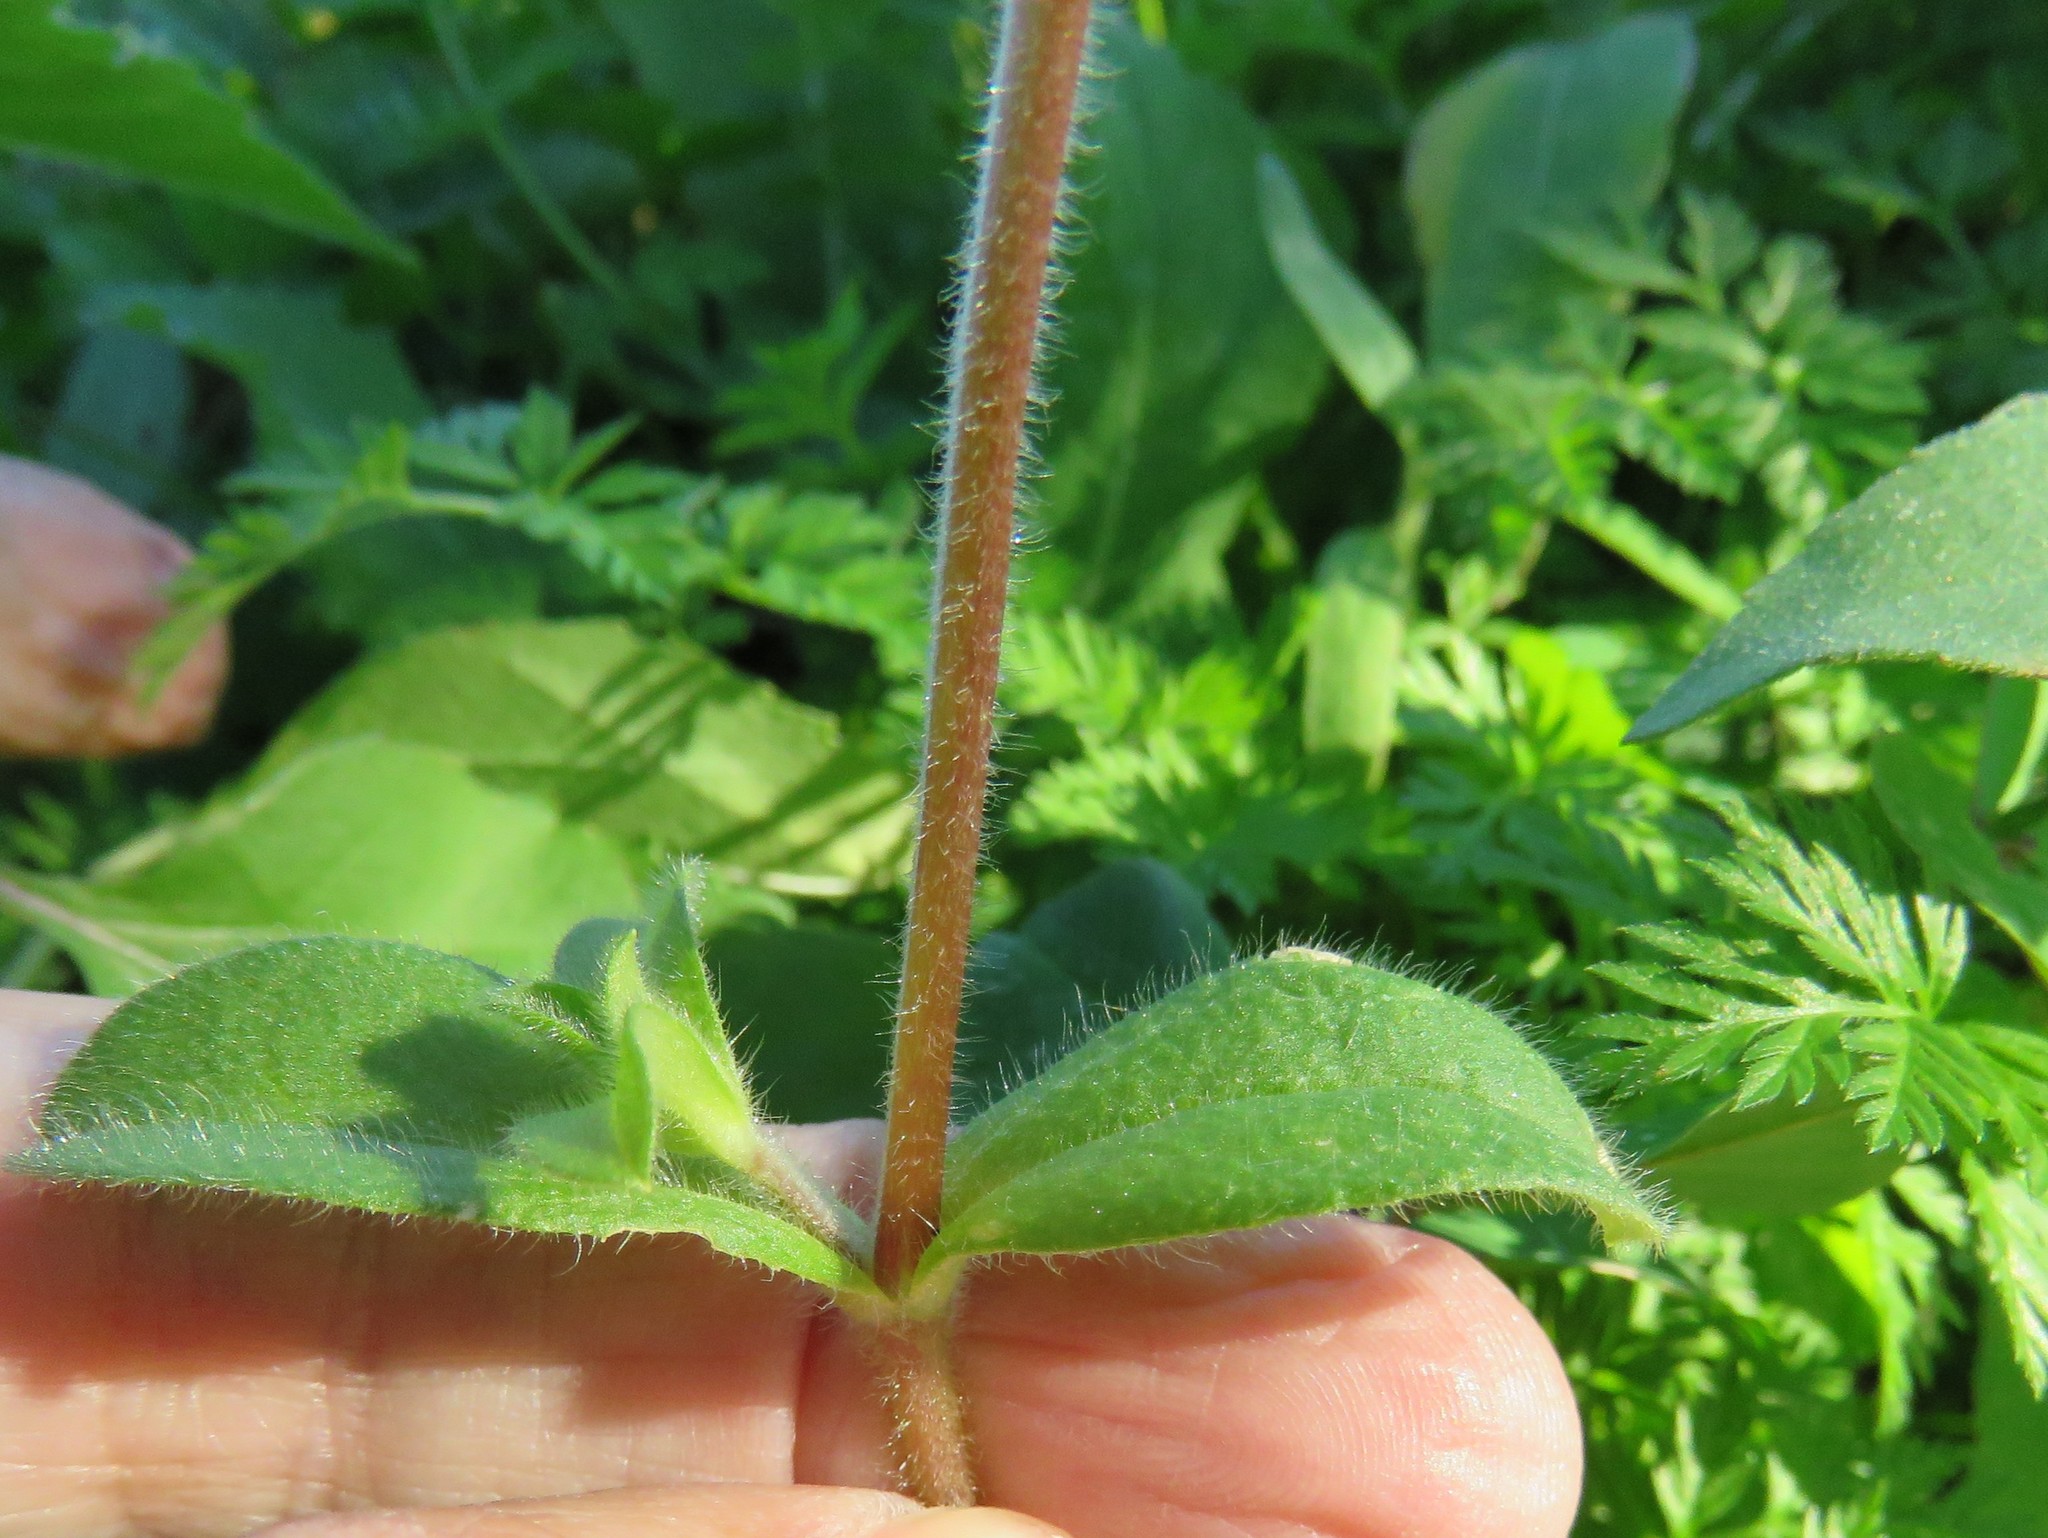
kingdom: Plantae
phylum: Tracheophyta
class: Magnoliopsida
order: Caryophyllales
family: Caryophyllaceae
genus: Cerastium
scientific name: Cerastium glomeratum
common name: Sticky chickweed
